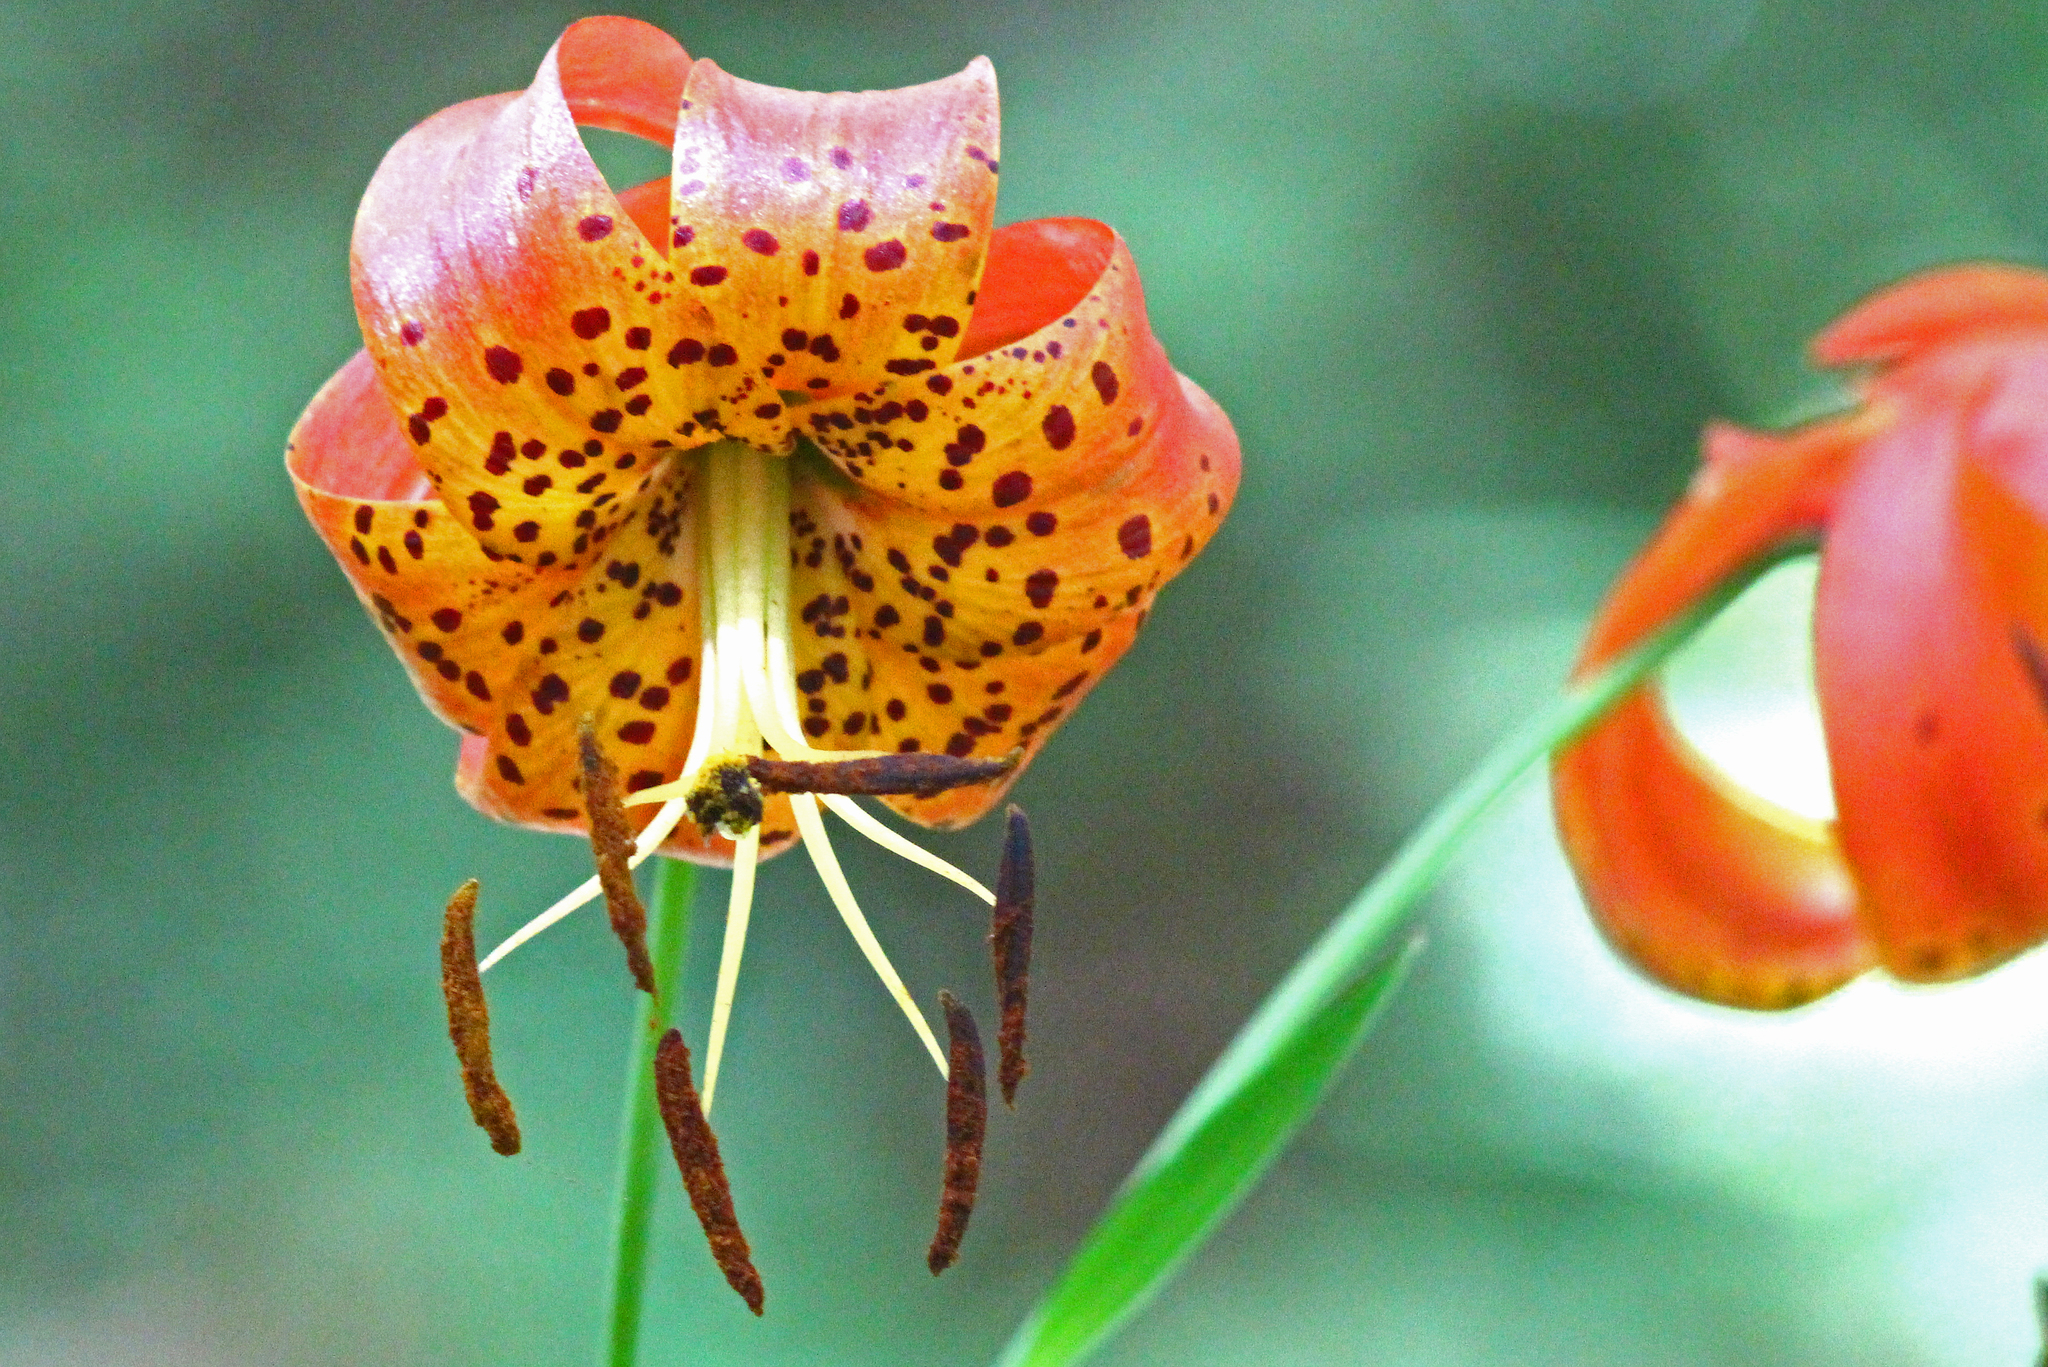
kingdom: Plantae
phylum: Tracheophyta
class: Liliopsida
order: Liliales
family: Liliaceae
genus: Lilium
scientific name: Lilium superbum
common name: American turk's-cap lily
